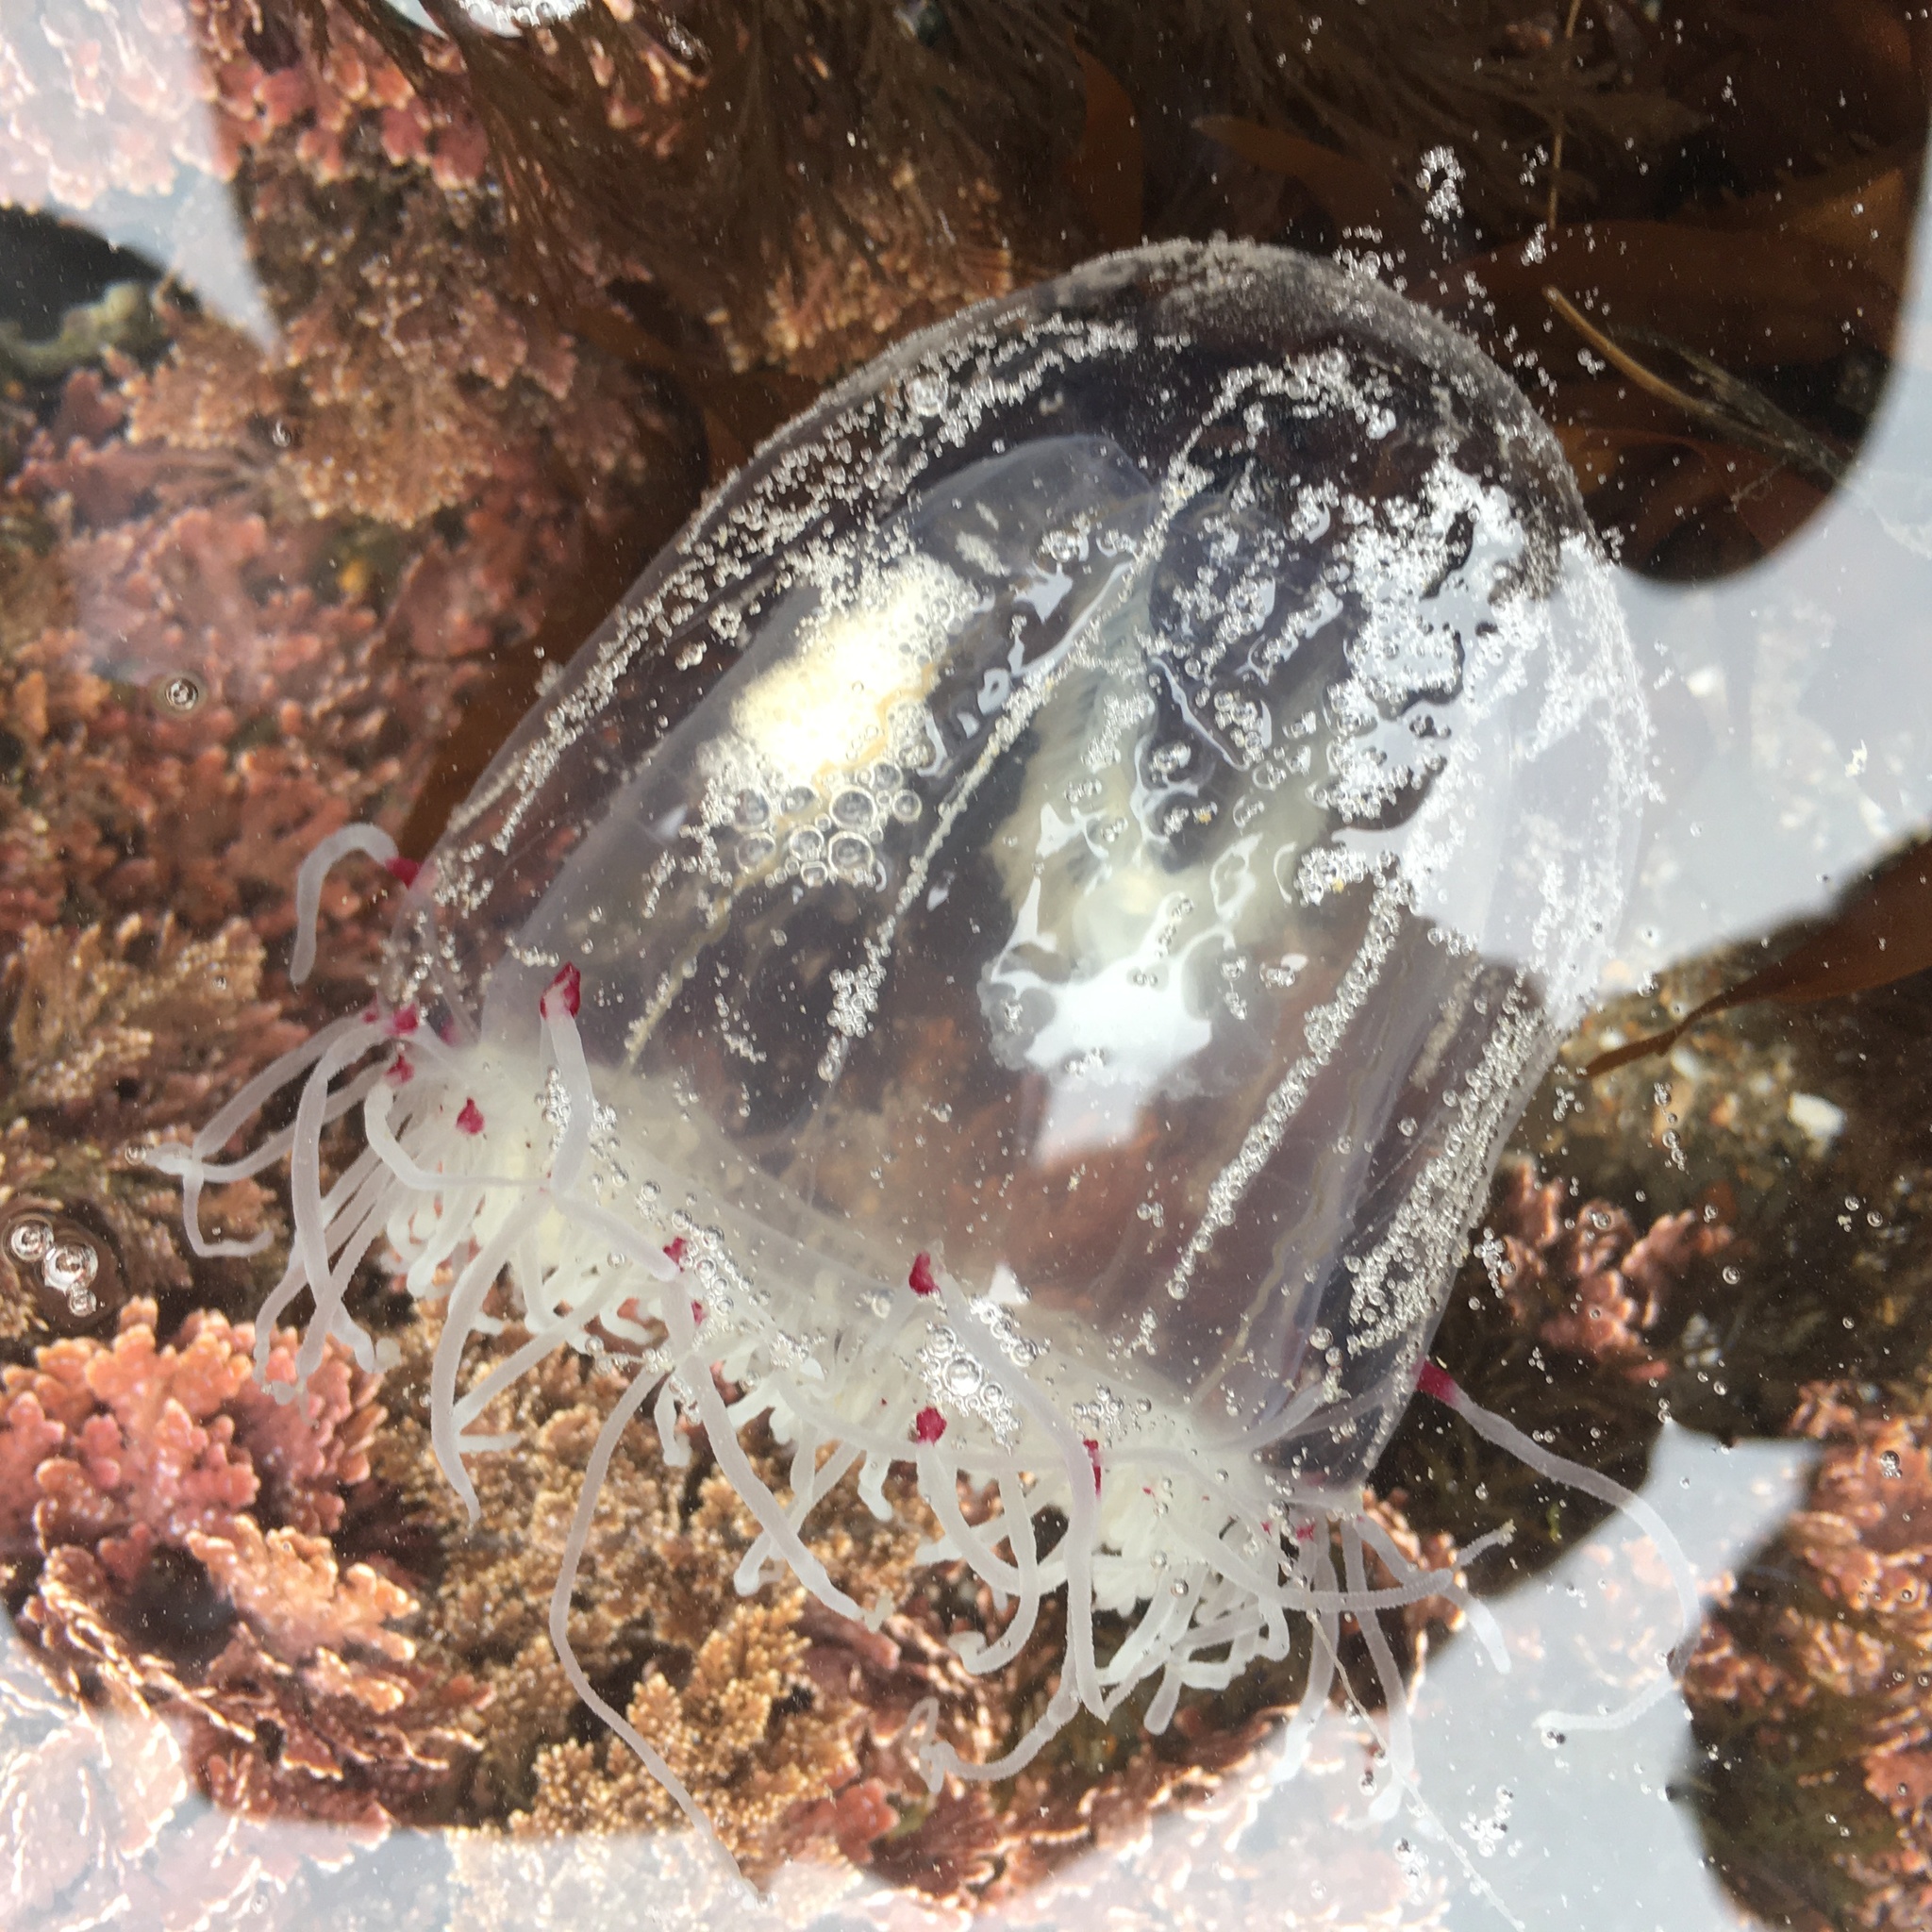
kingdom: Animalia
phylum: Cnidaria
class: Hydrozoa
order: Anthoathecata
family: Corynidae
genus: Scrippsia
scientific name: Scrippsia pacifica
